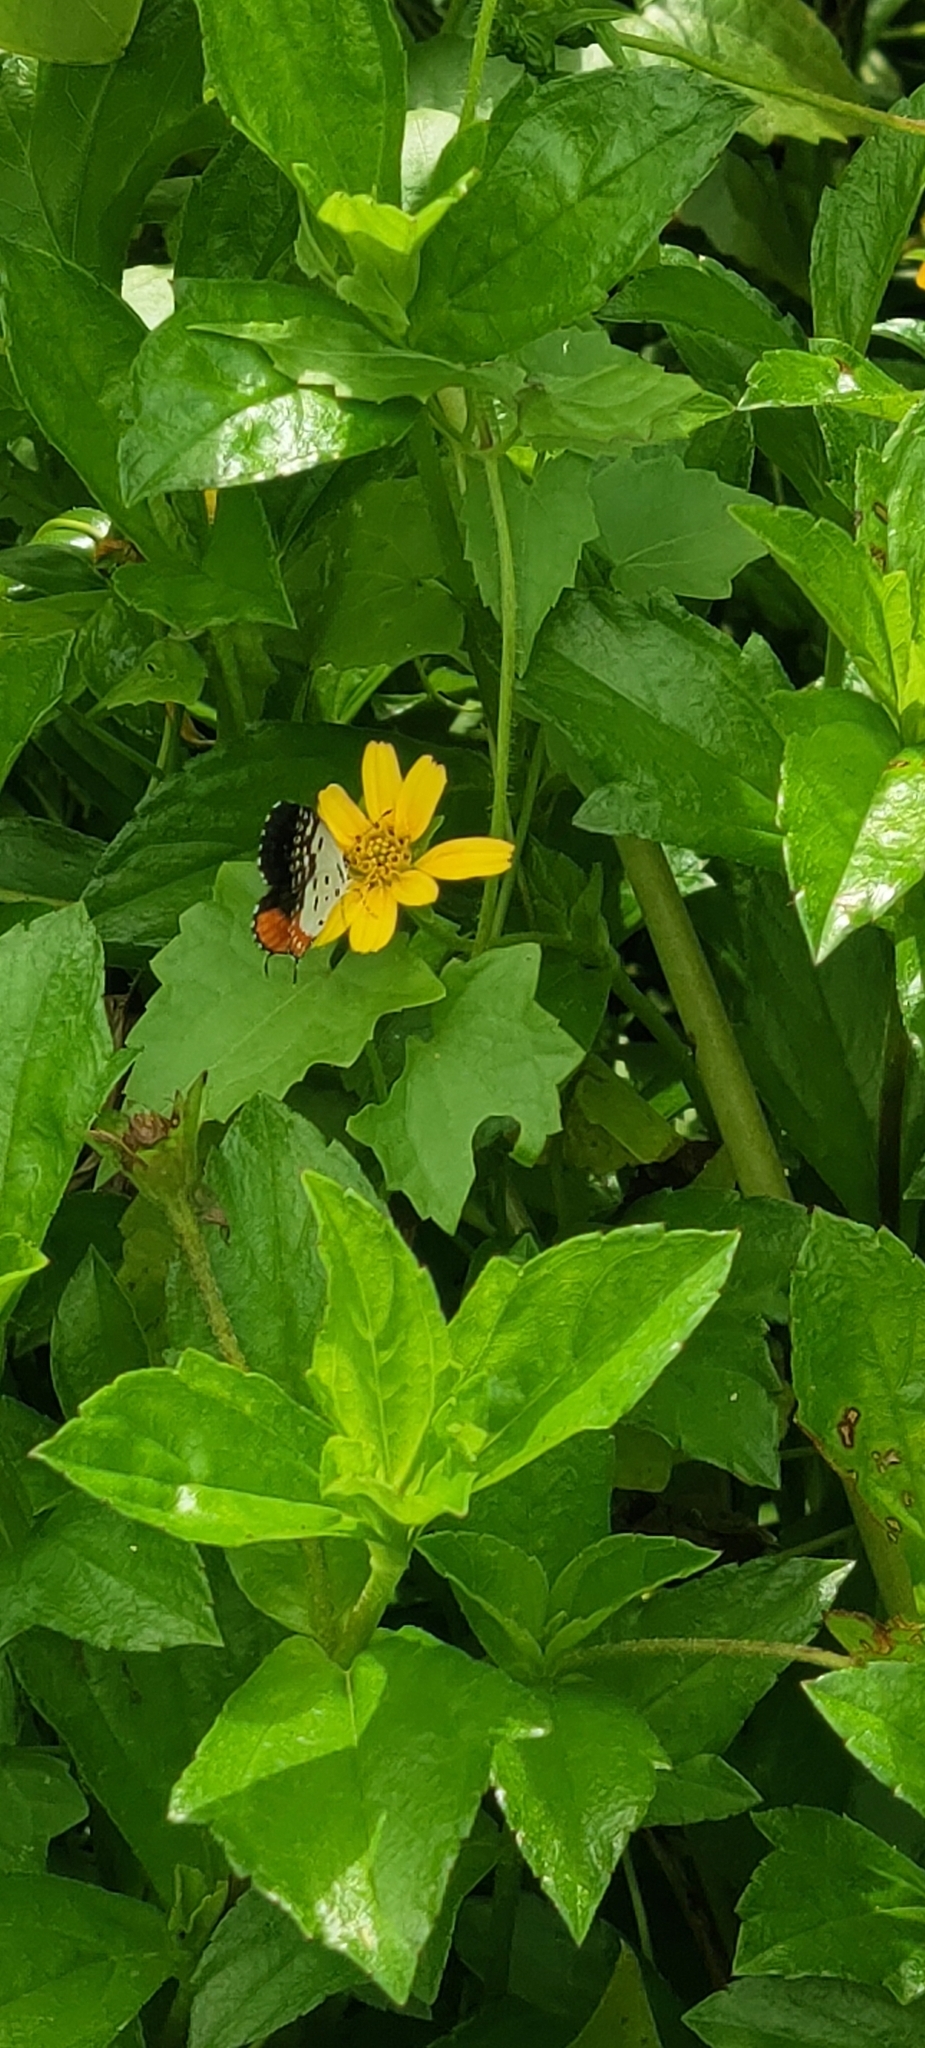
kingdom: Animalia
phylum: Arthropoda
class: Insecta
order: Lepidoptera
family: Lycaenidae
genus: Talicada
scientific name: Talicada nyseus
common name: Red pierrot
